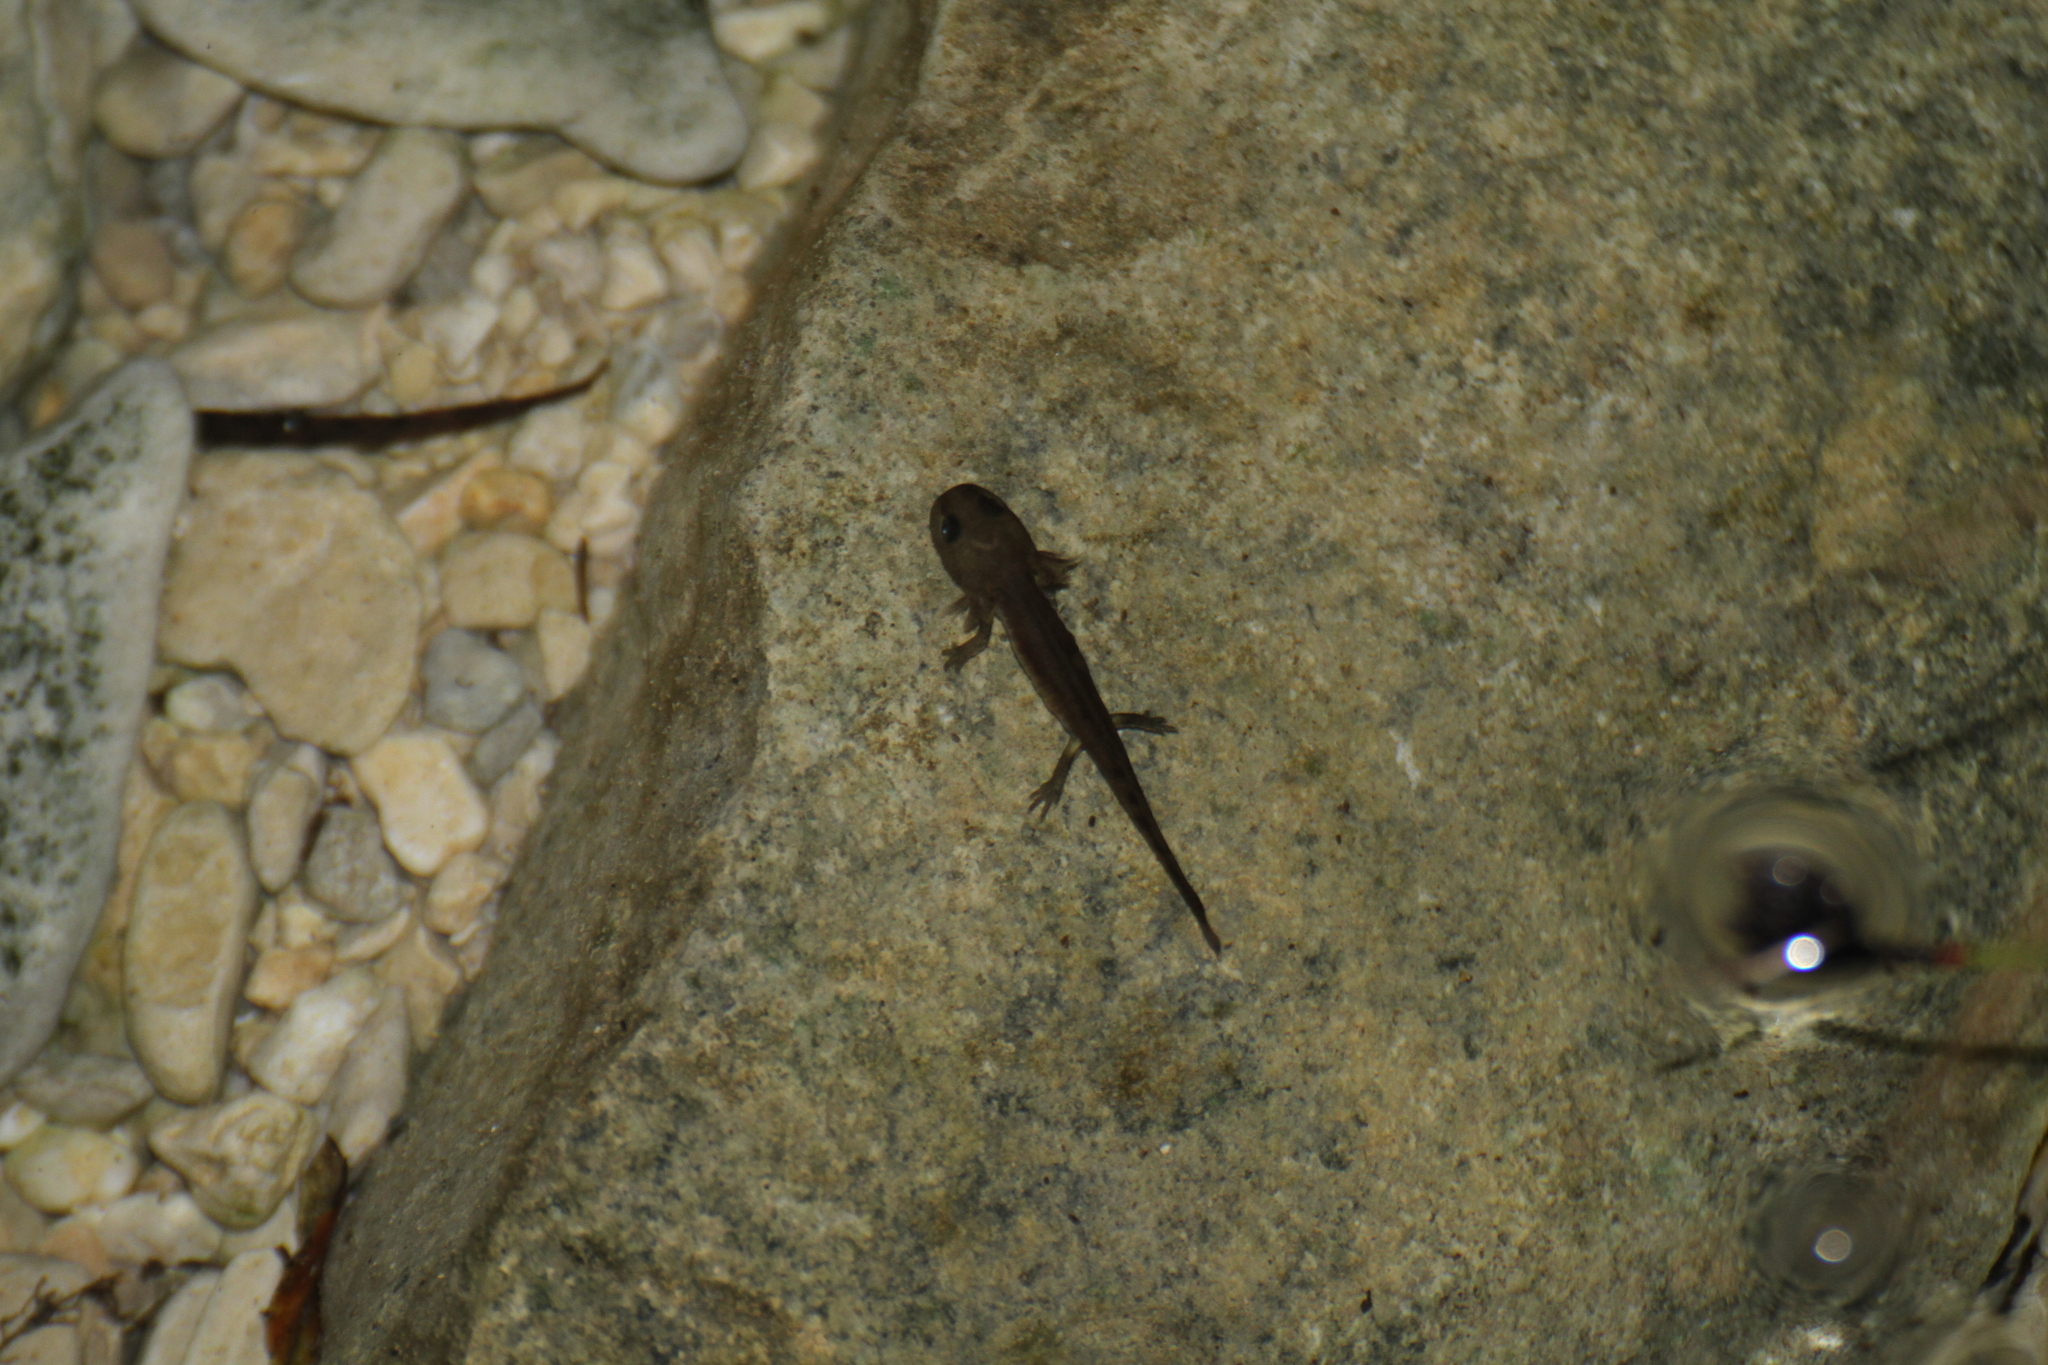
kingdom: Animalia
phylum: Chordata
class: Amphibia
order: Caudata
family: Salamandridae
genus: Salamandra
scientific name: Salamandra salamandra
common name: Fire salamander
